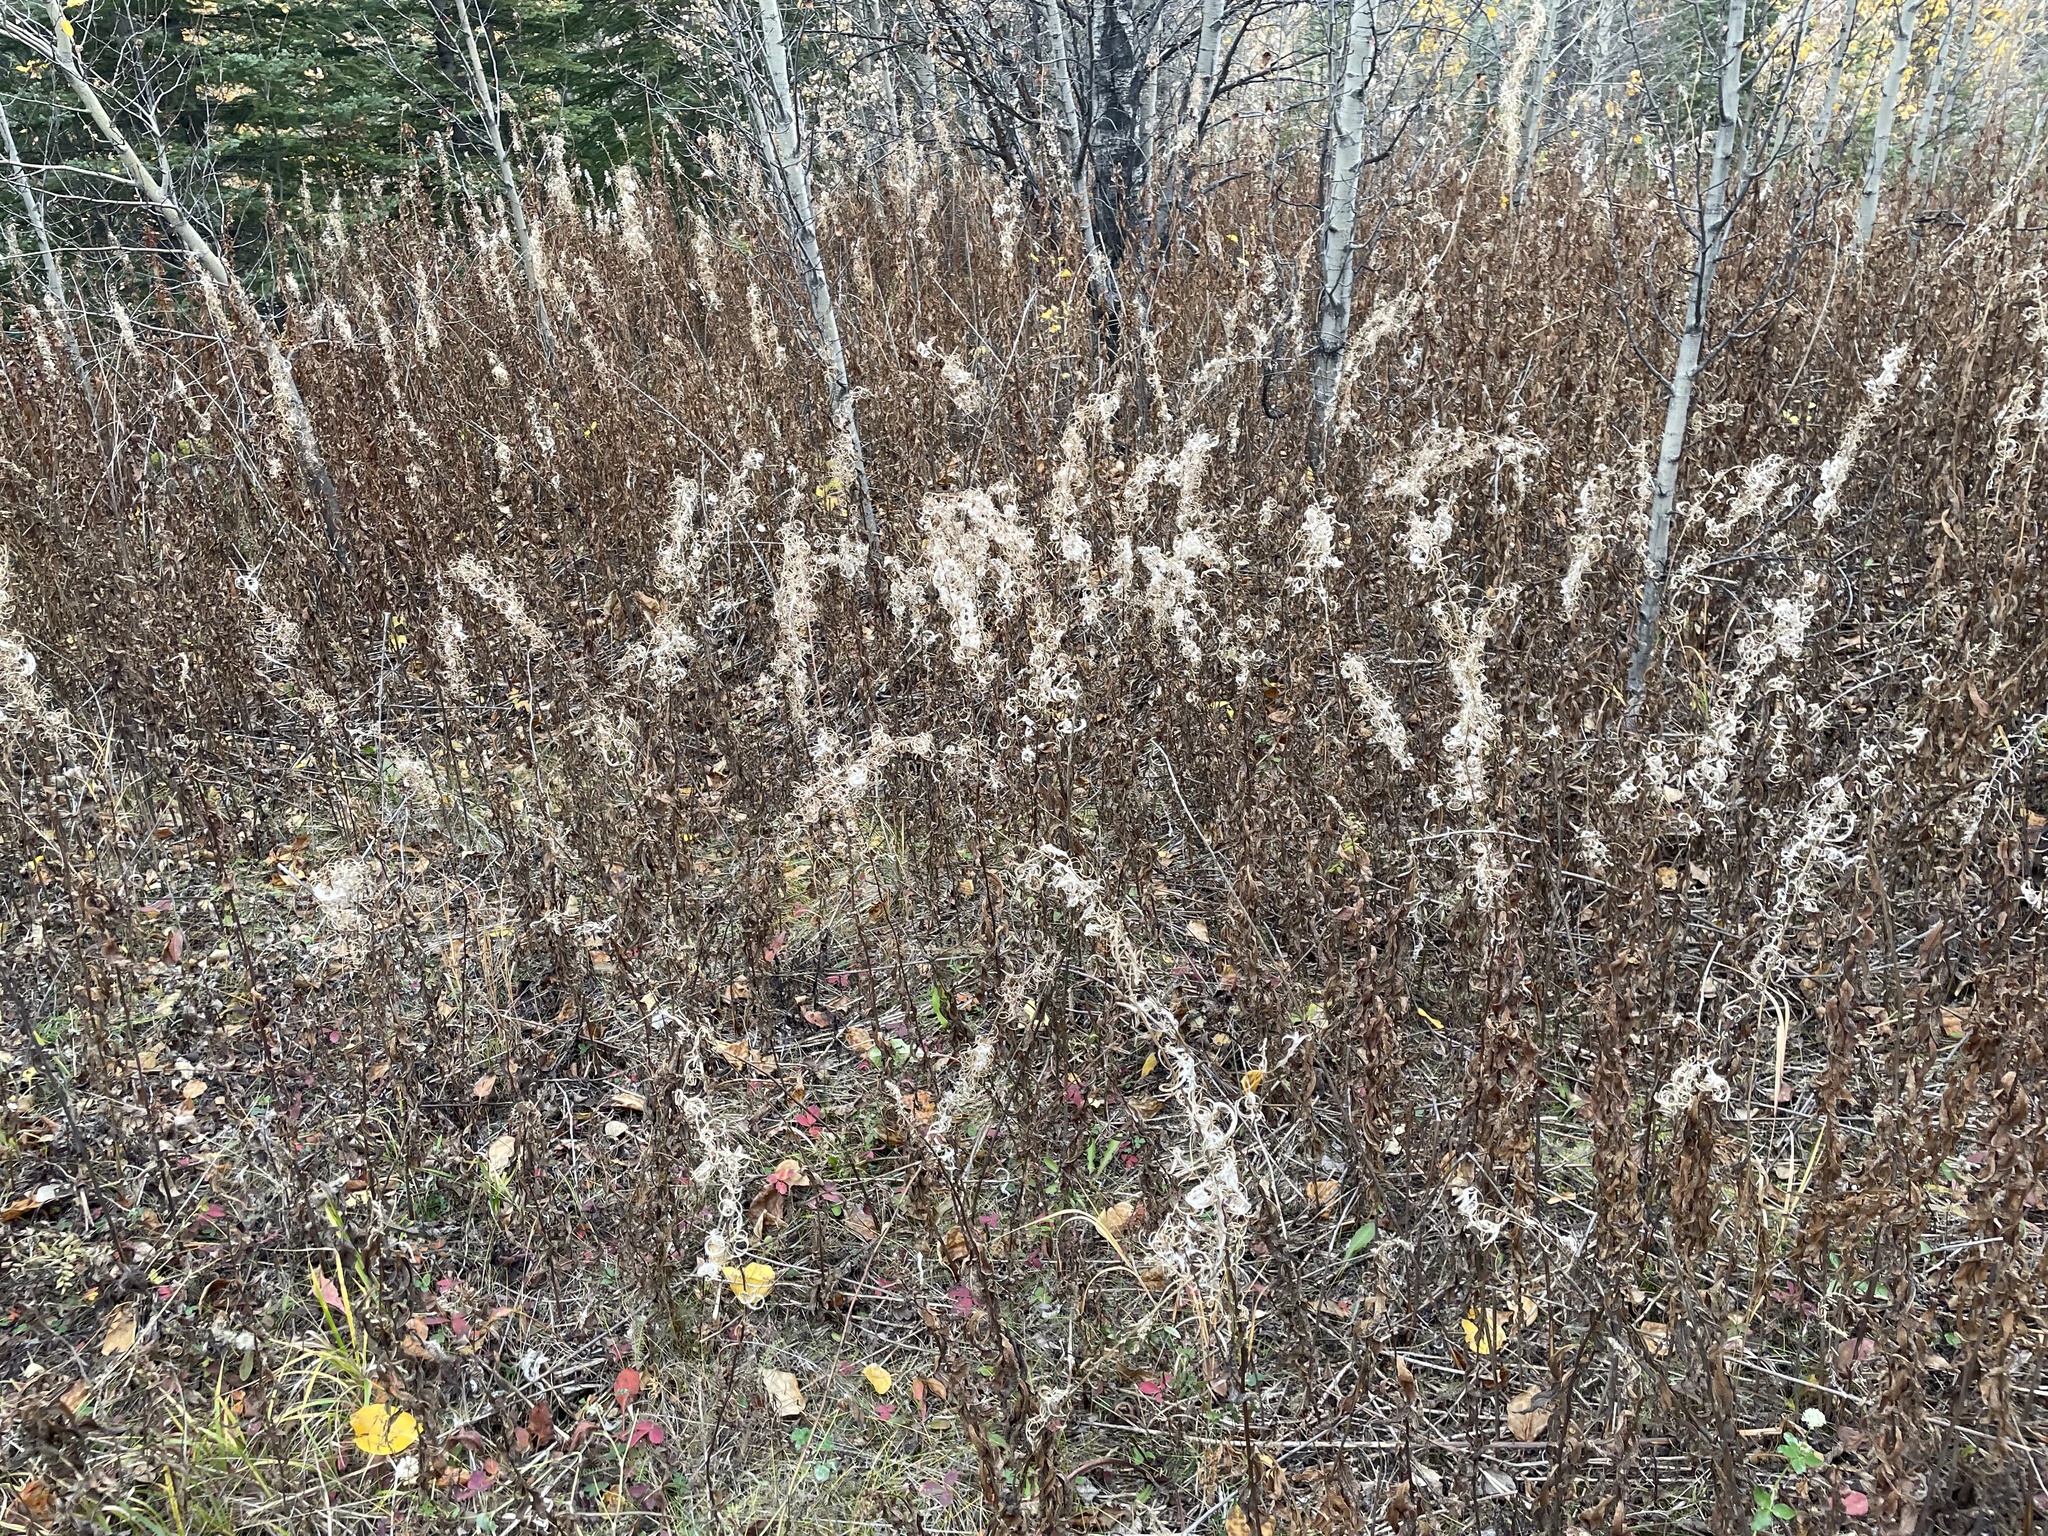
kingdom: Plantae
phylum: Tracheophyta
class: Magnoliopsida
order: Myrtales
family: Onagraceae
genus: Chamaenerion
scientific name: Chamaenerion angustifolium
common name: Fireweed
